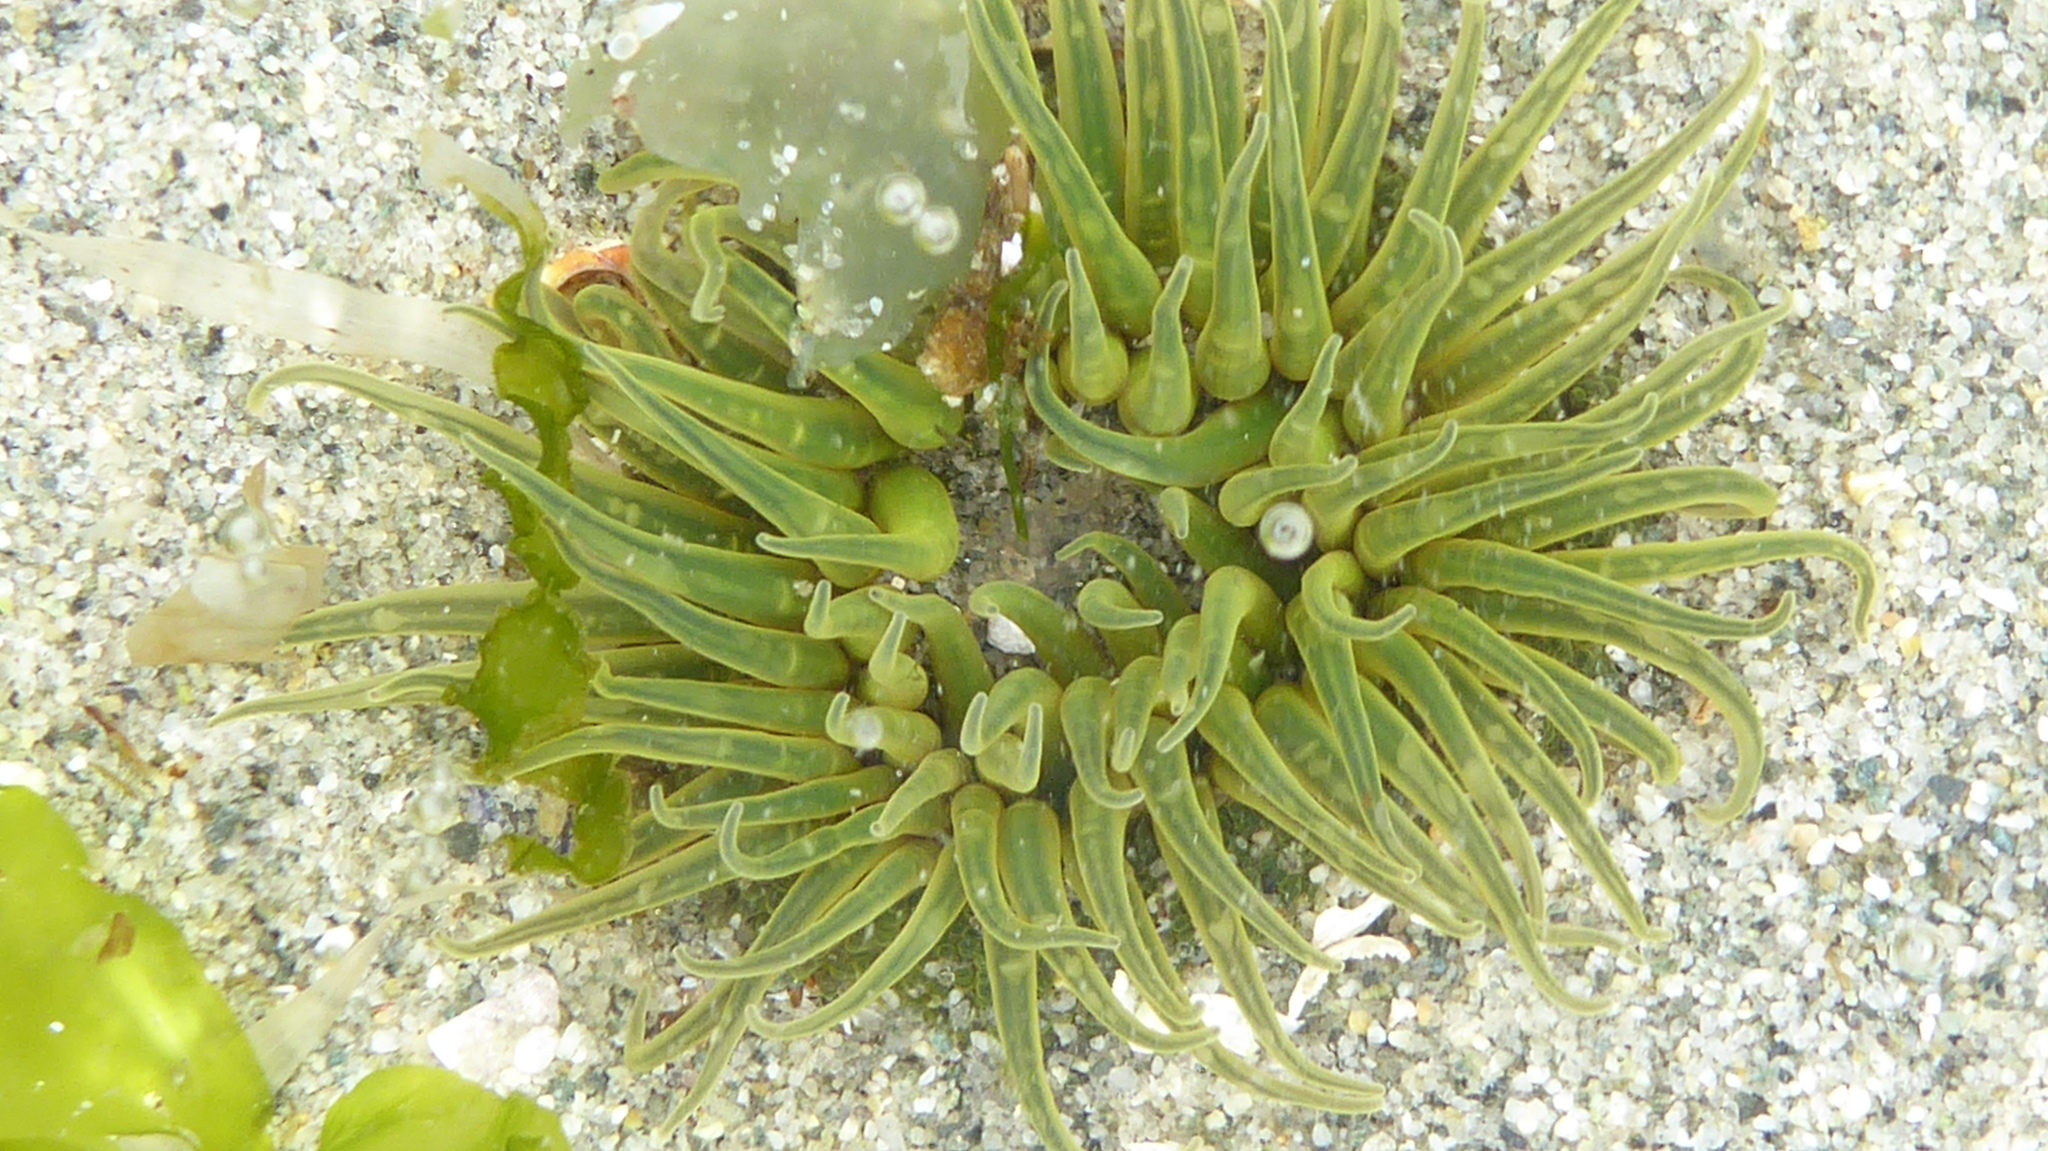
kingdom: Animalia
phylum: Cnidaria
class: Anthozoa
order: Actiniaria
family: Actiniidae
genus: Anthopleura
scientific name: Anthopleura artemisia
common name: Buried sea anemone
